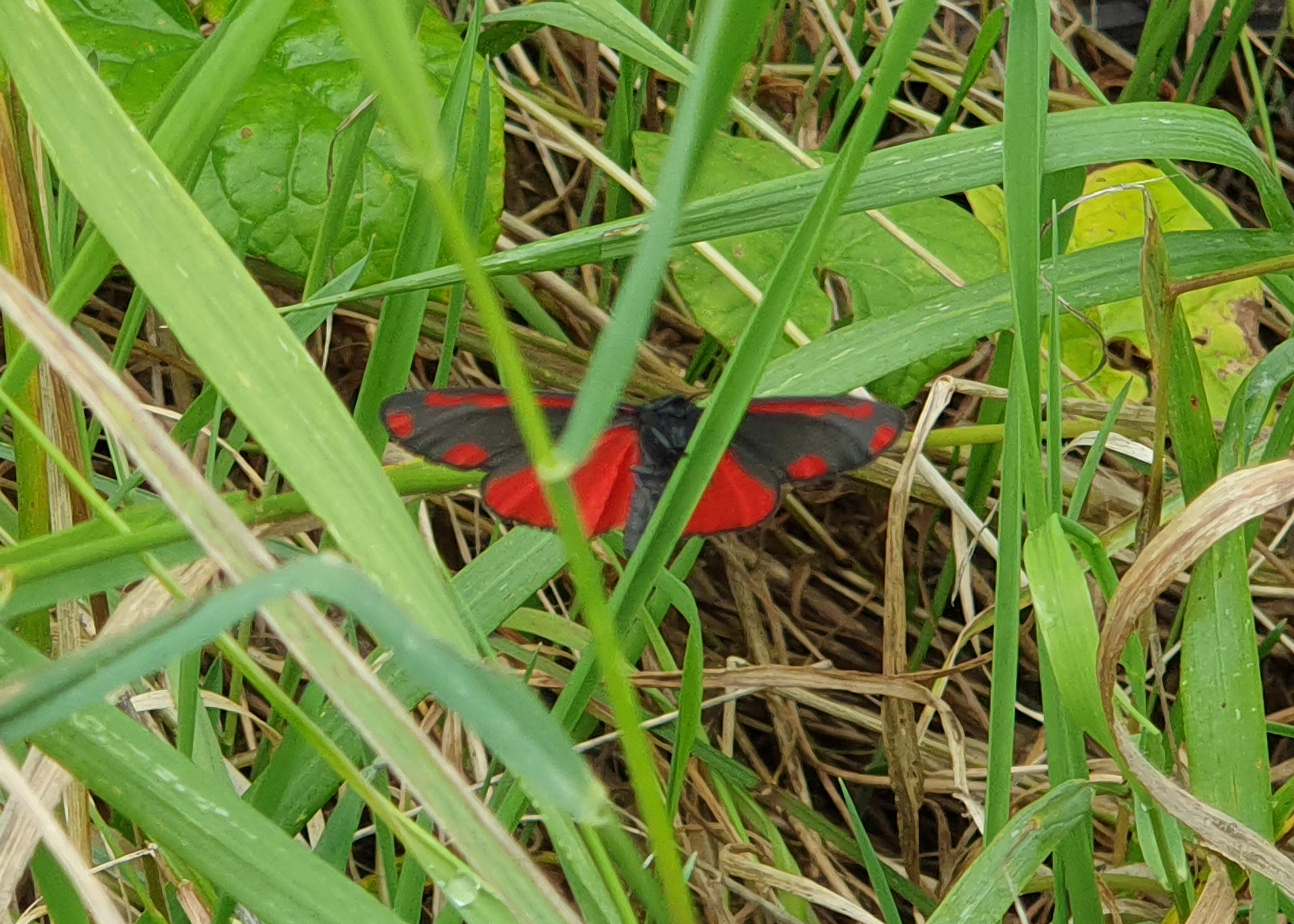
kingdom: Animalia
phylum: Arthropoda
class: Insecta
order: Lepidoptera
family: Erebidae
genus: Tyria
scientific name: Tyria jacobaeae
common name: Cinnabar
